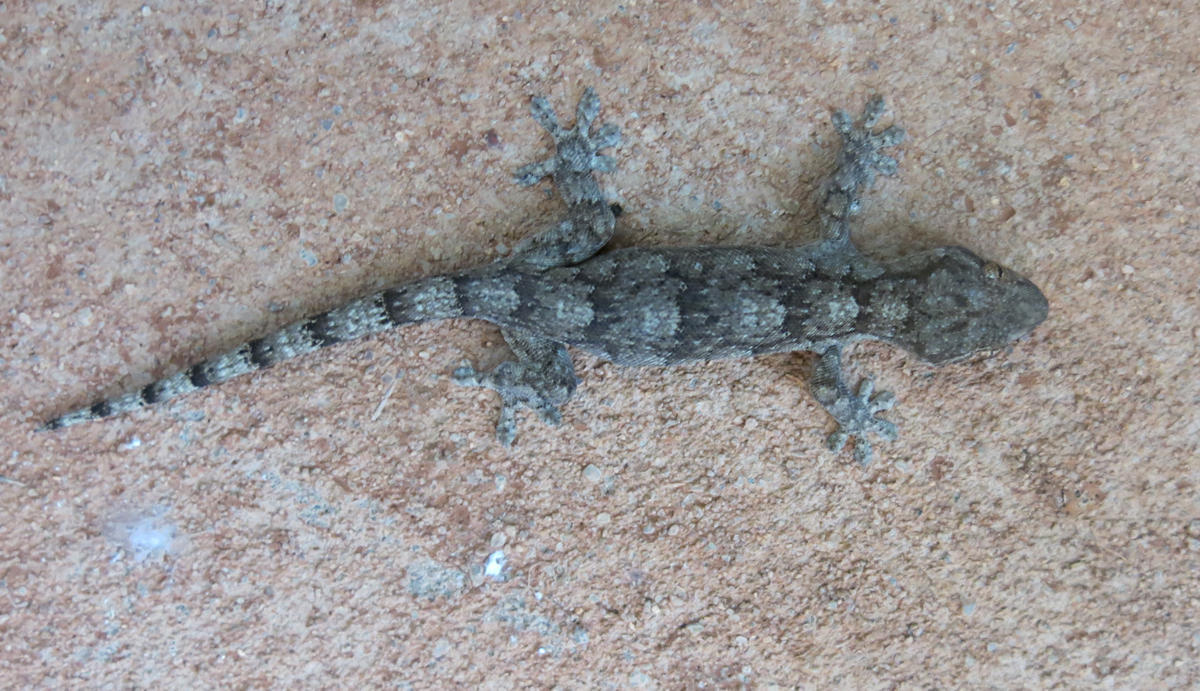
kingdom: Animalia
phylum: Chordata
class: Squamata
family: Gekkonidae
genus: Homopholis
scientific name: Homopholis walbergii
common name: Wahlberg’s velvet gecko
